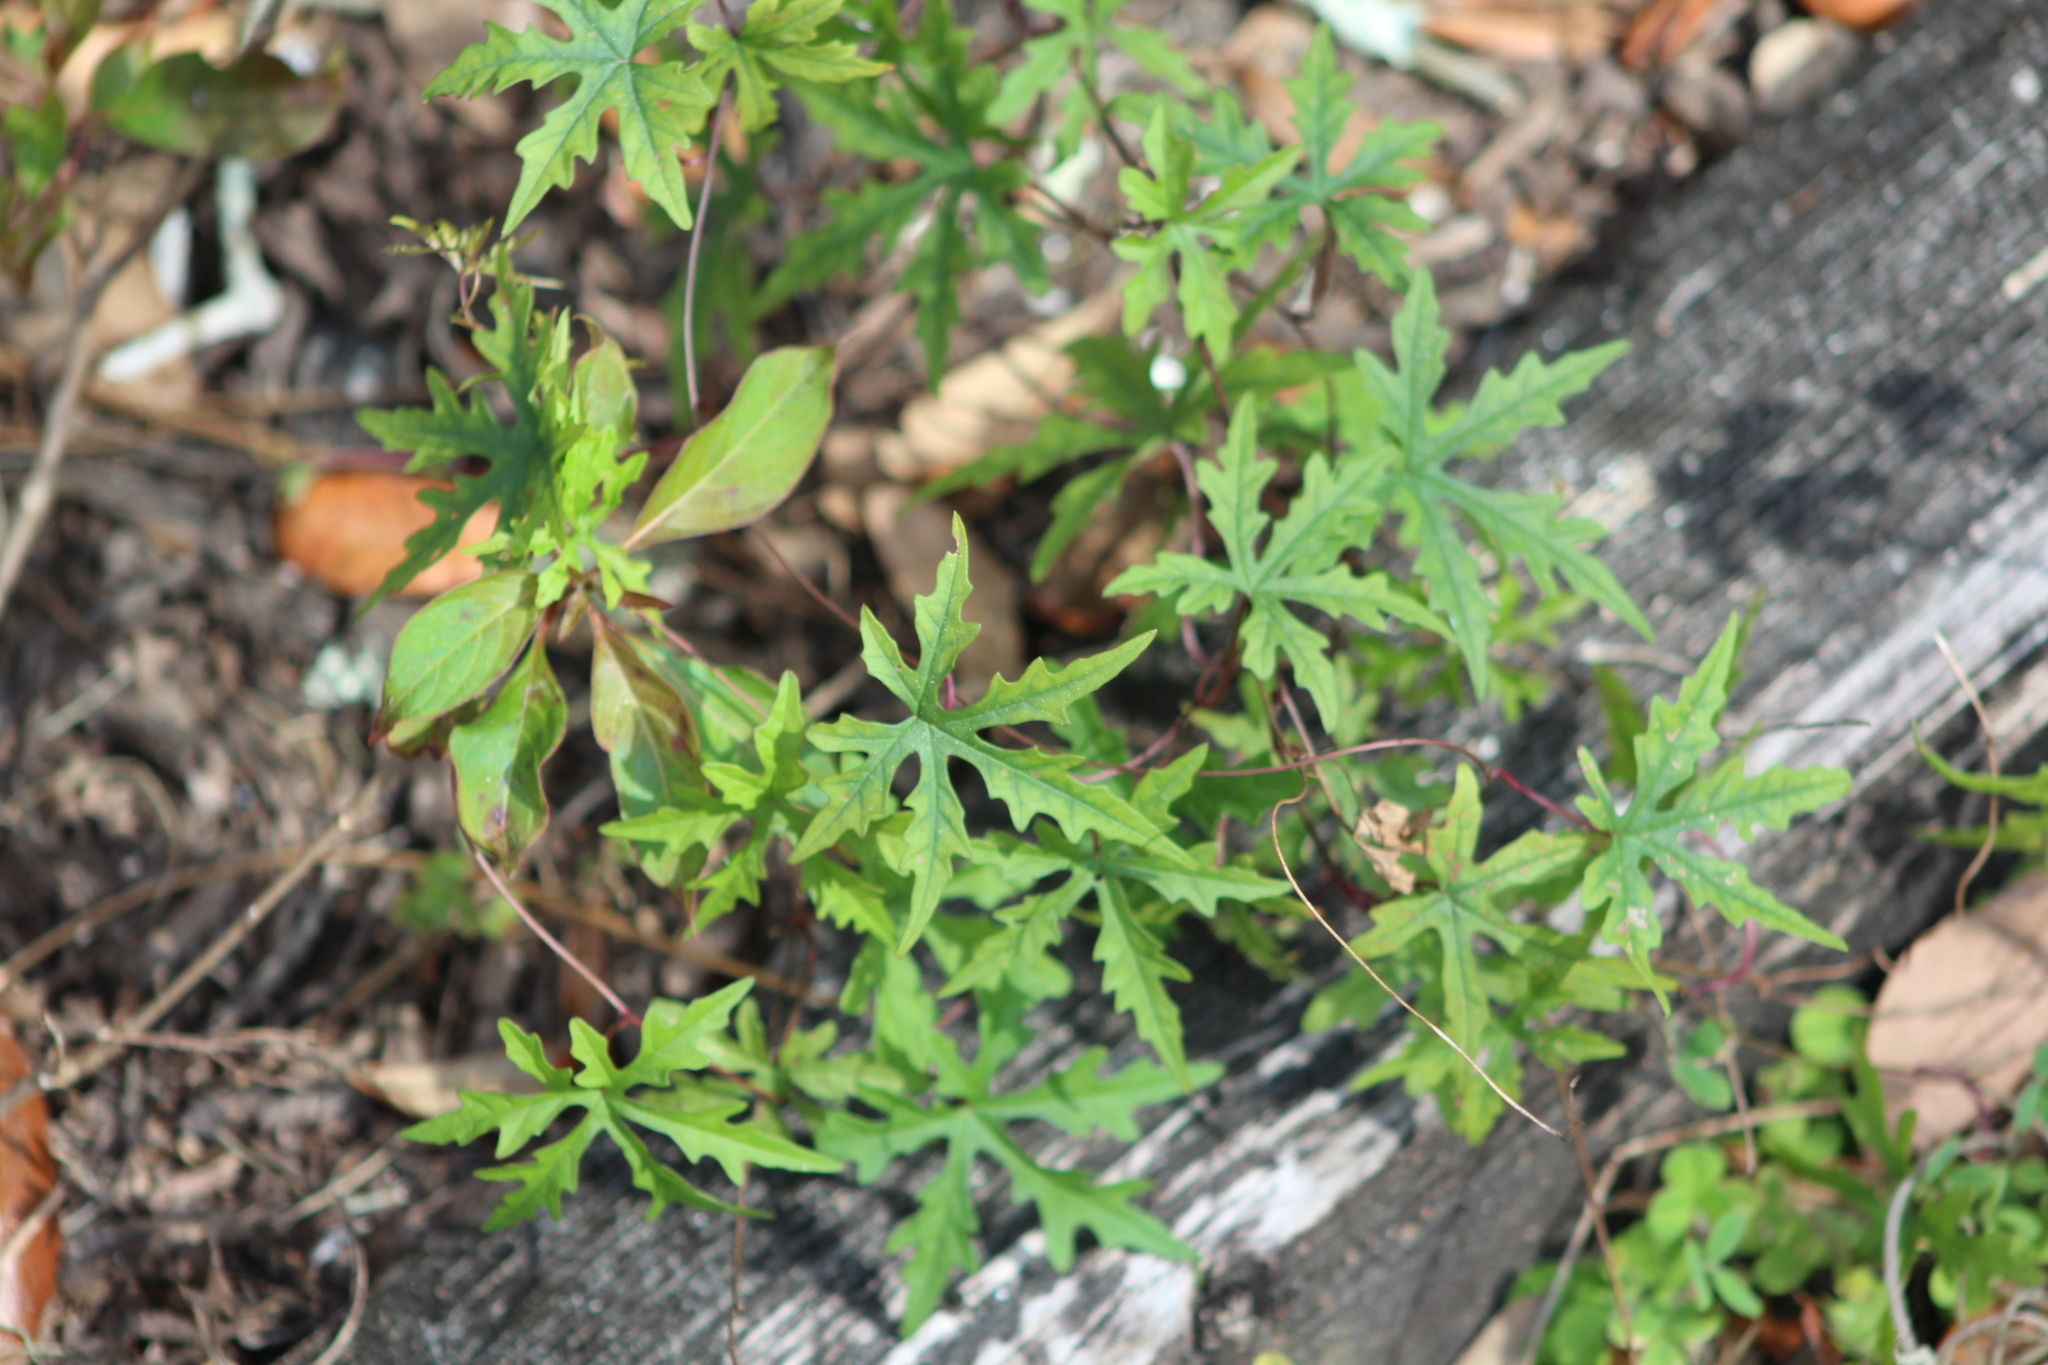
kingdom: Plantae
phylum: Tracheophyta
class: Magnoliopsida
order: Solanales
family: Convolvulaceae
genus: Distimake
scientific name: Distimake dissectus
